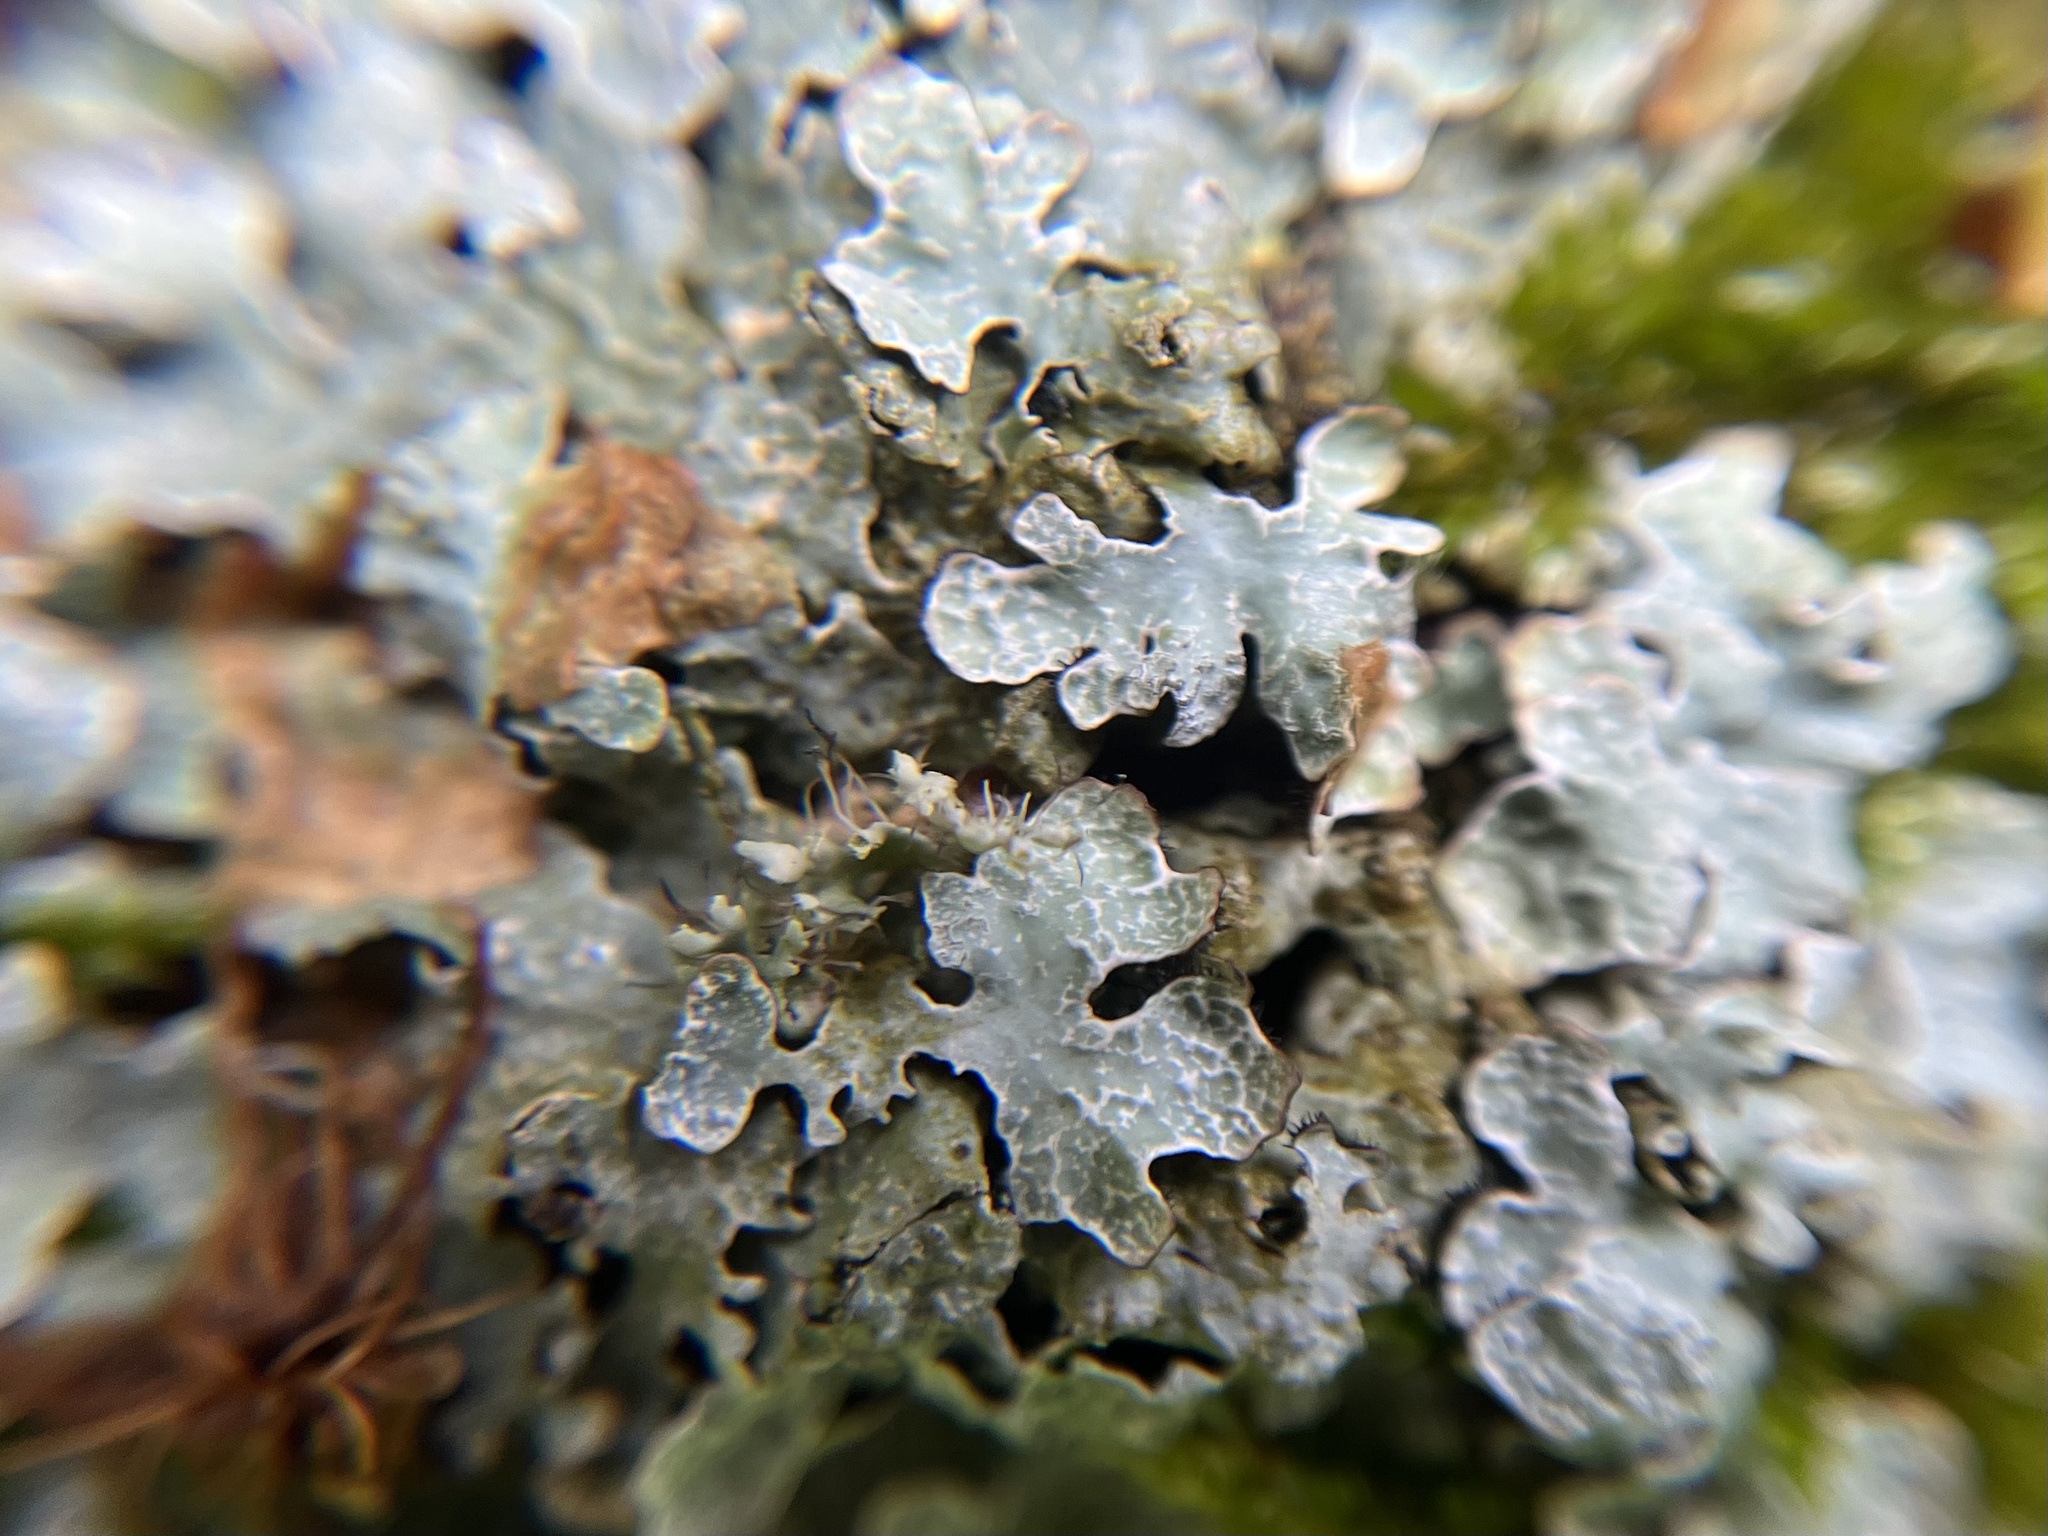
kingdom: Fungi
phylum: Ascomycota
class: Lecanoromycetes
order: Lecanorales
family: Parmeliaceae
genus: Parmelia
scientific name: Parmelia sulcata
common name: Netted shield lichen
